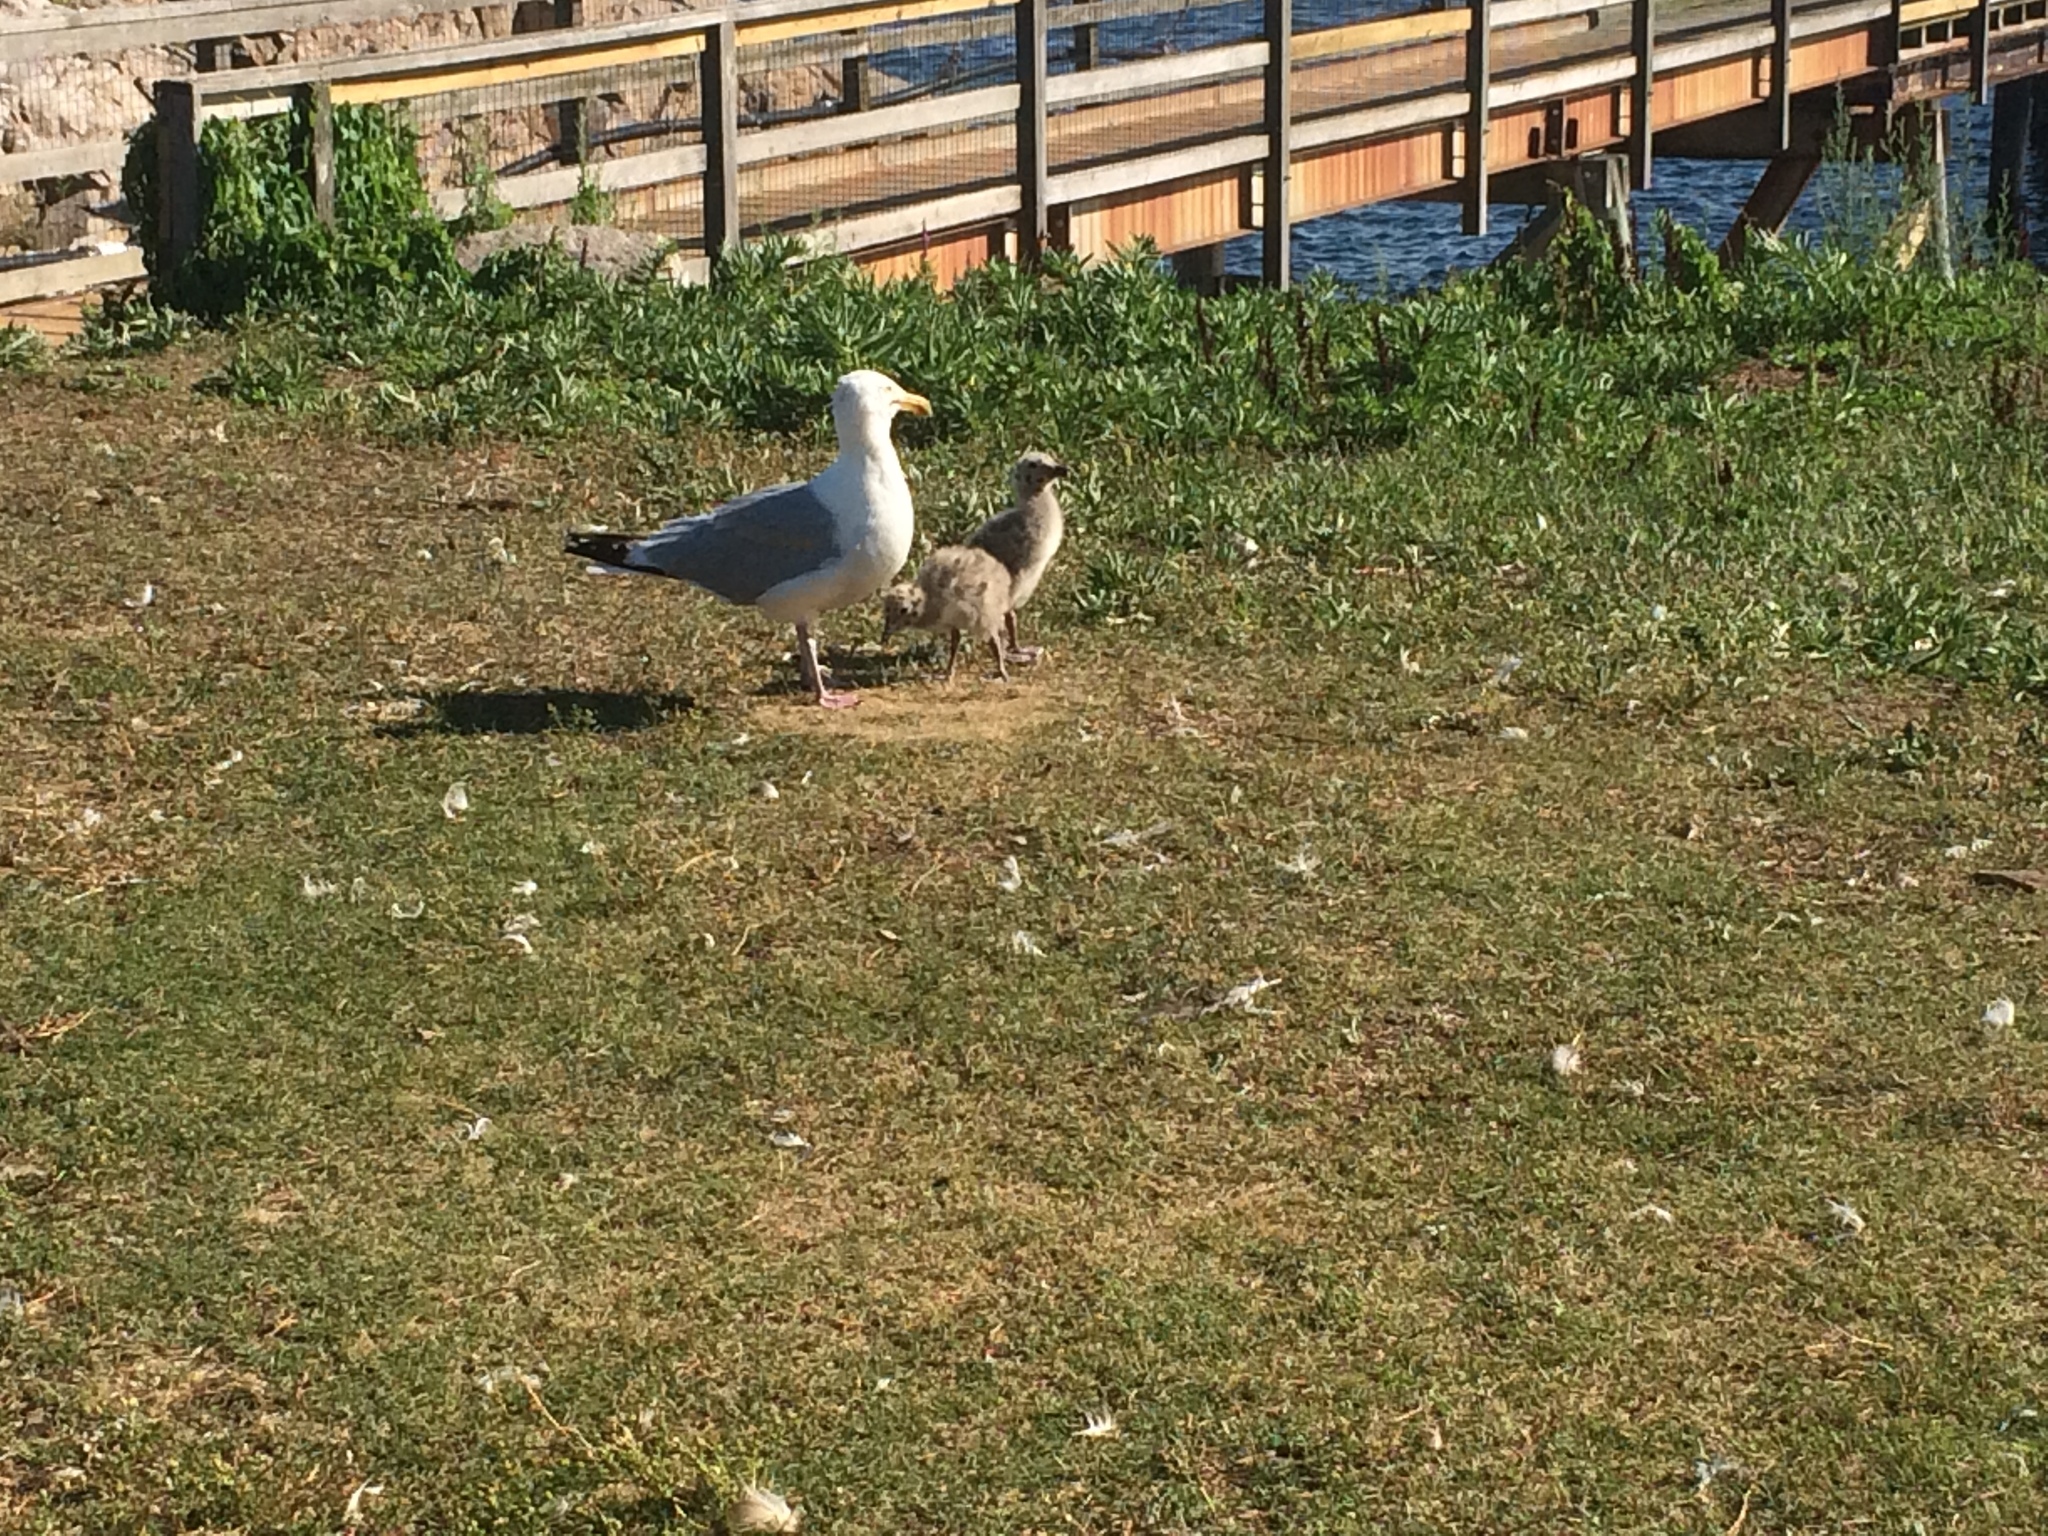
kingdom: Animalia
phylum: Chordata
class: Aves
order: Charadriiformes
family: Laridae
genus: Larus
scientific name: Larus argentatus
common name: Herring gull
